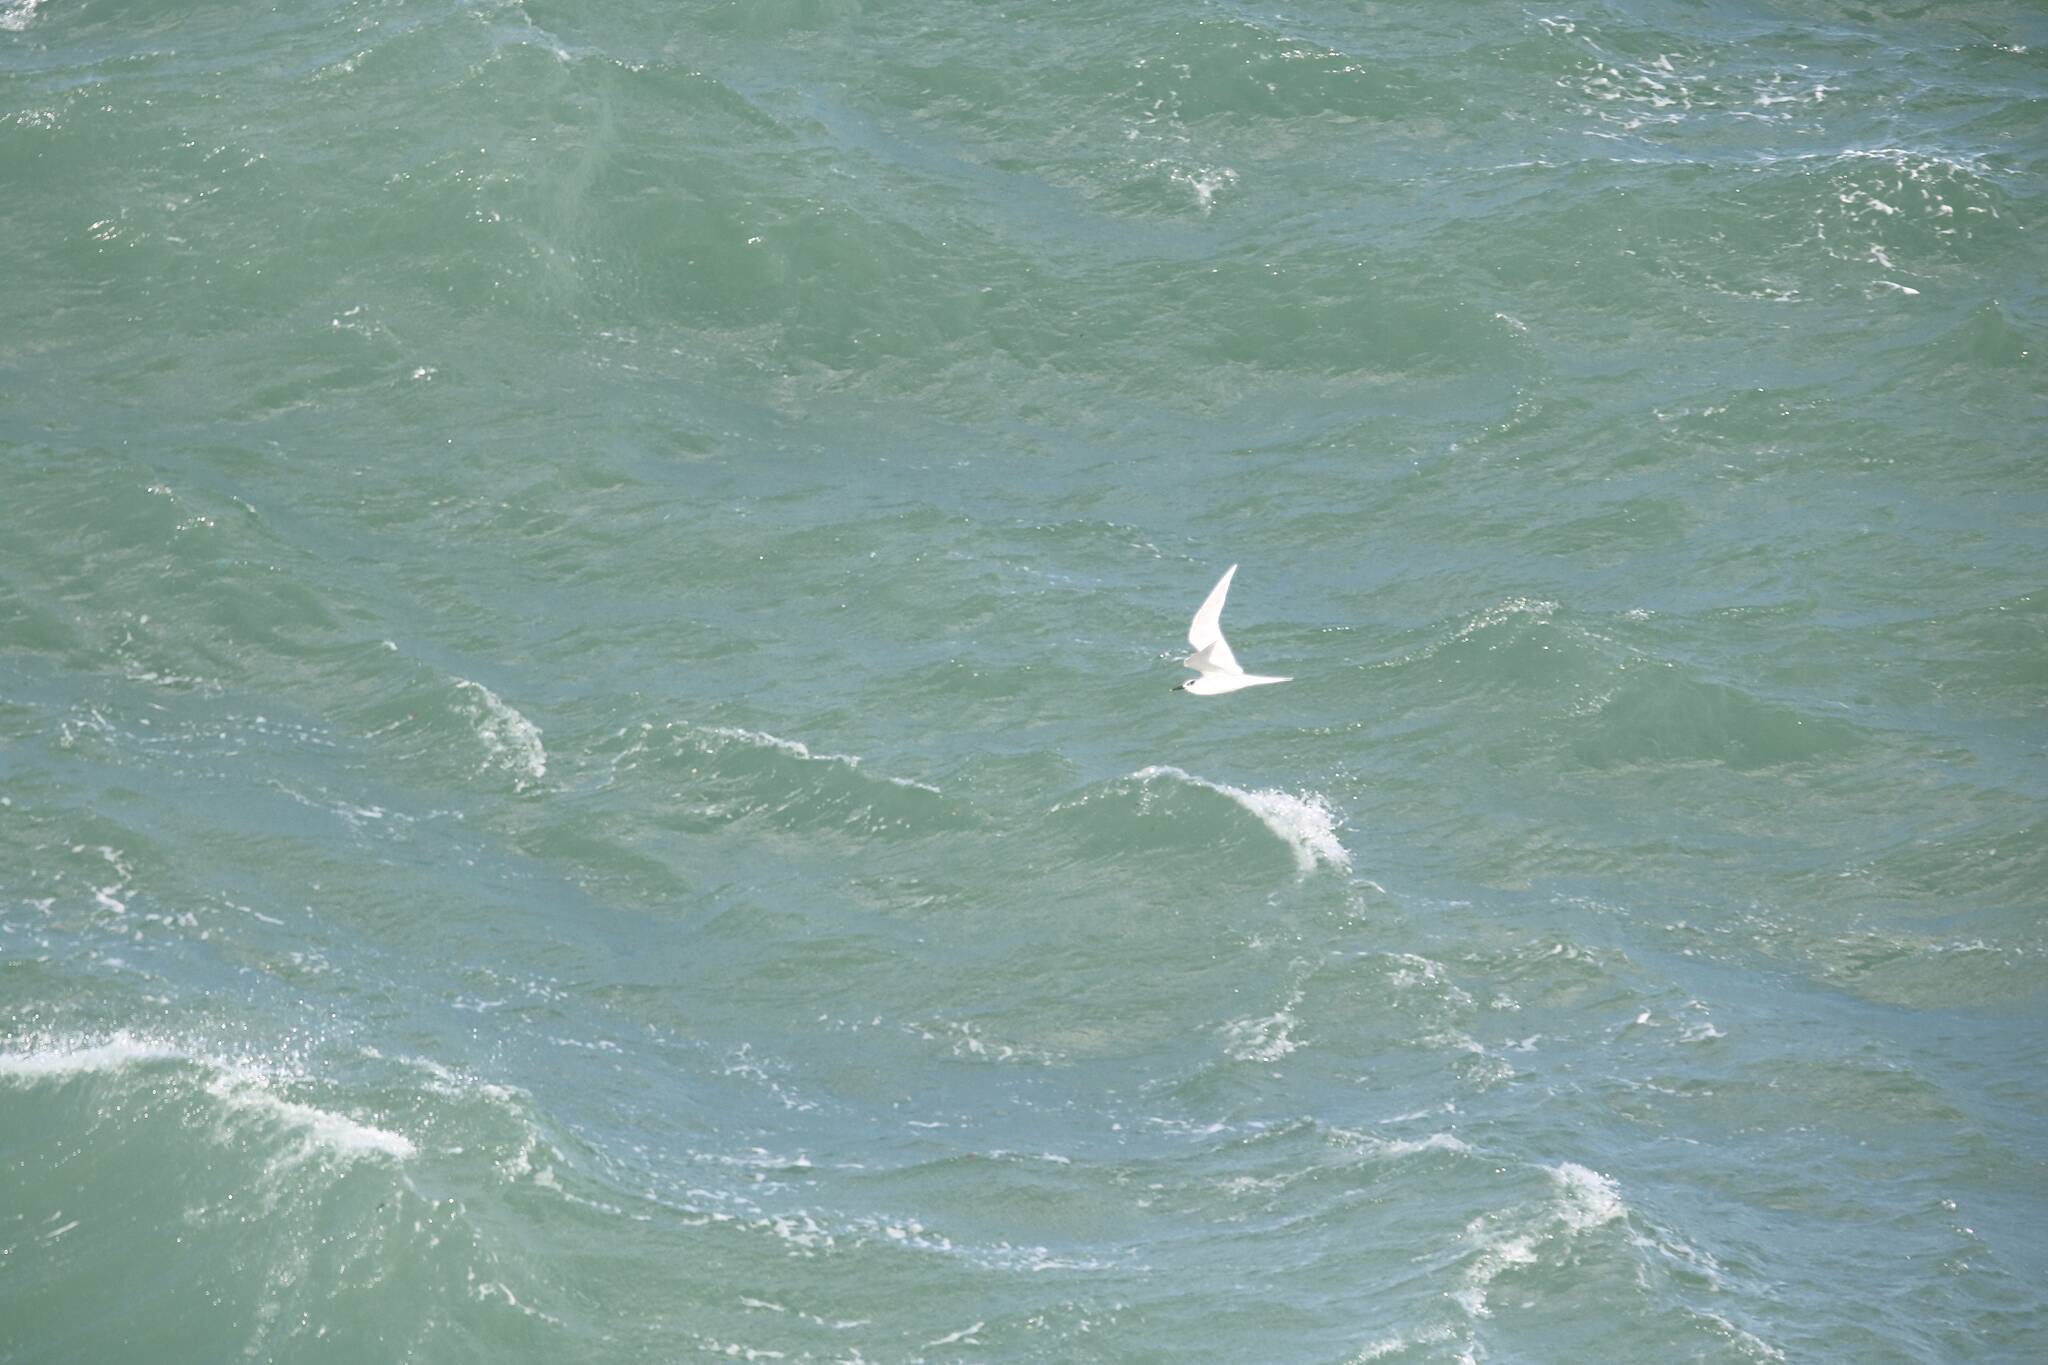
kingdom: Animalia
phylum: Chordata
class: Aves
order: Charadriiformes
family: Laridae
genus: Thalasseus
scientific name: Thalasseus sandvicensis
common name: Sandwich tern
